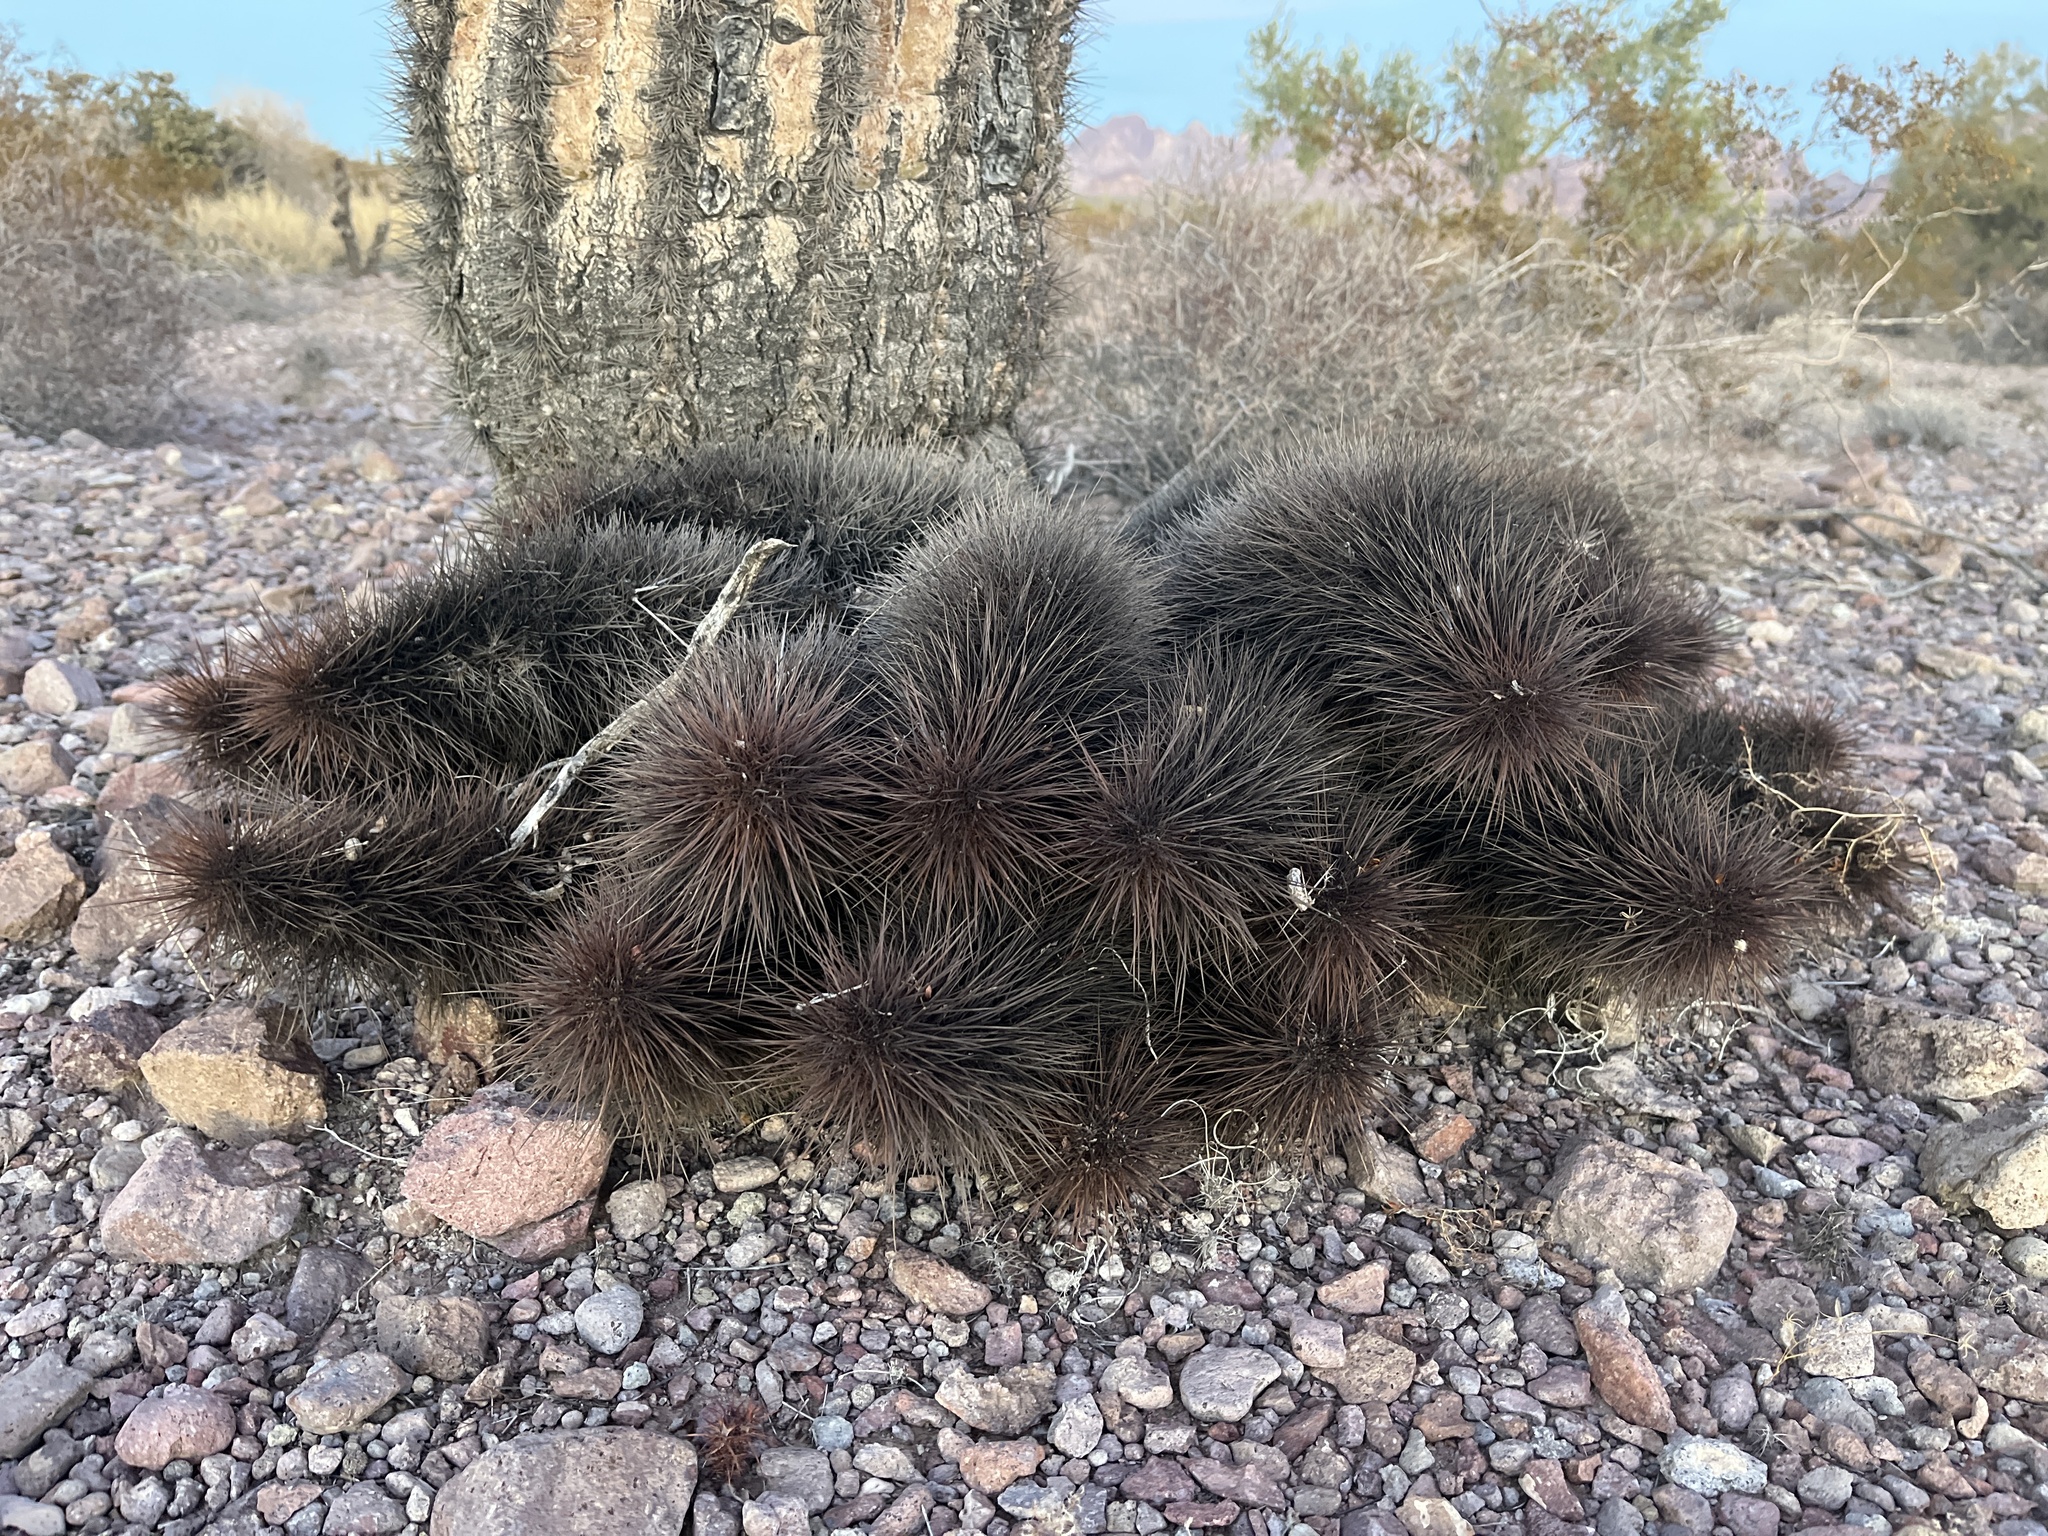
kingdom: Plantae
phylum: Tracheophyta
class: Magnoliopsida
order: Caryophyllales
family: Cactaceae
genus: Echinocereus
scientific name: Echinocereus engelmannii
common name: Engelmann's hedgehog cactus
